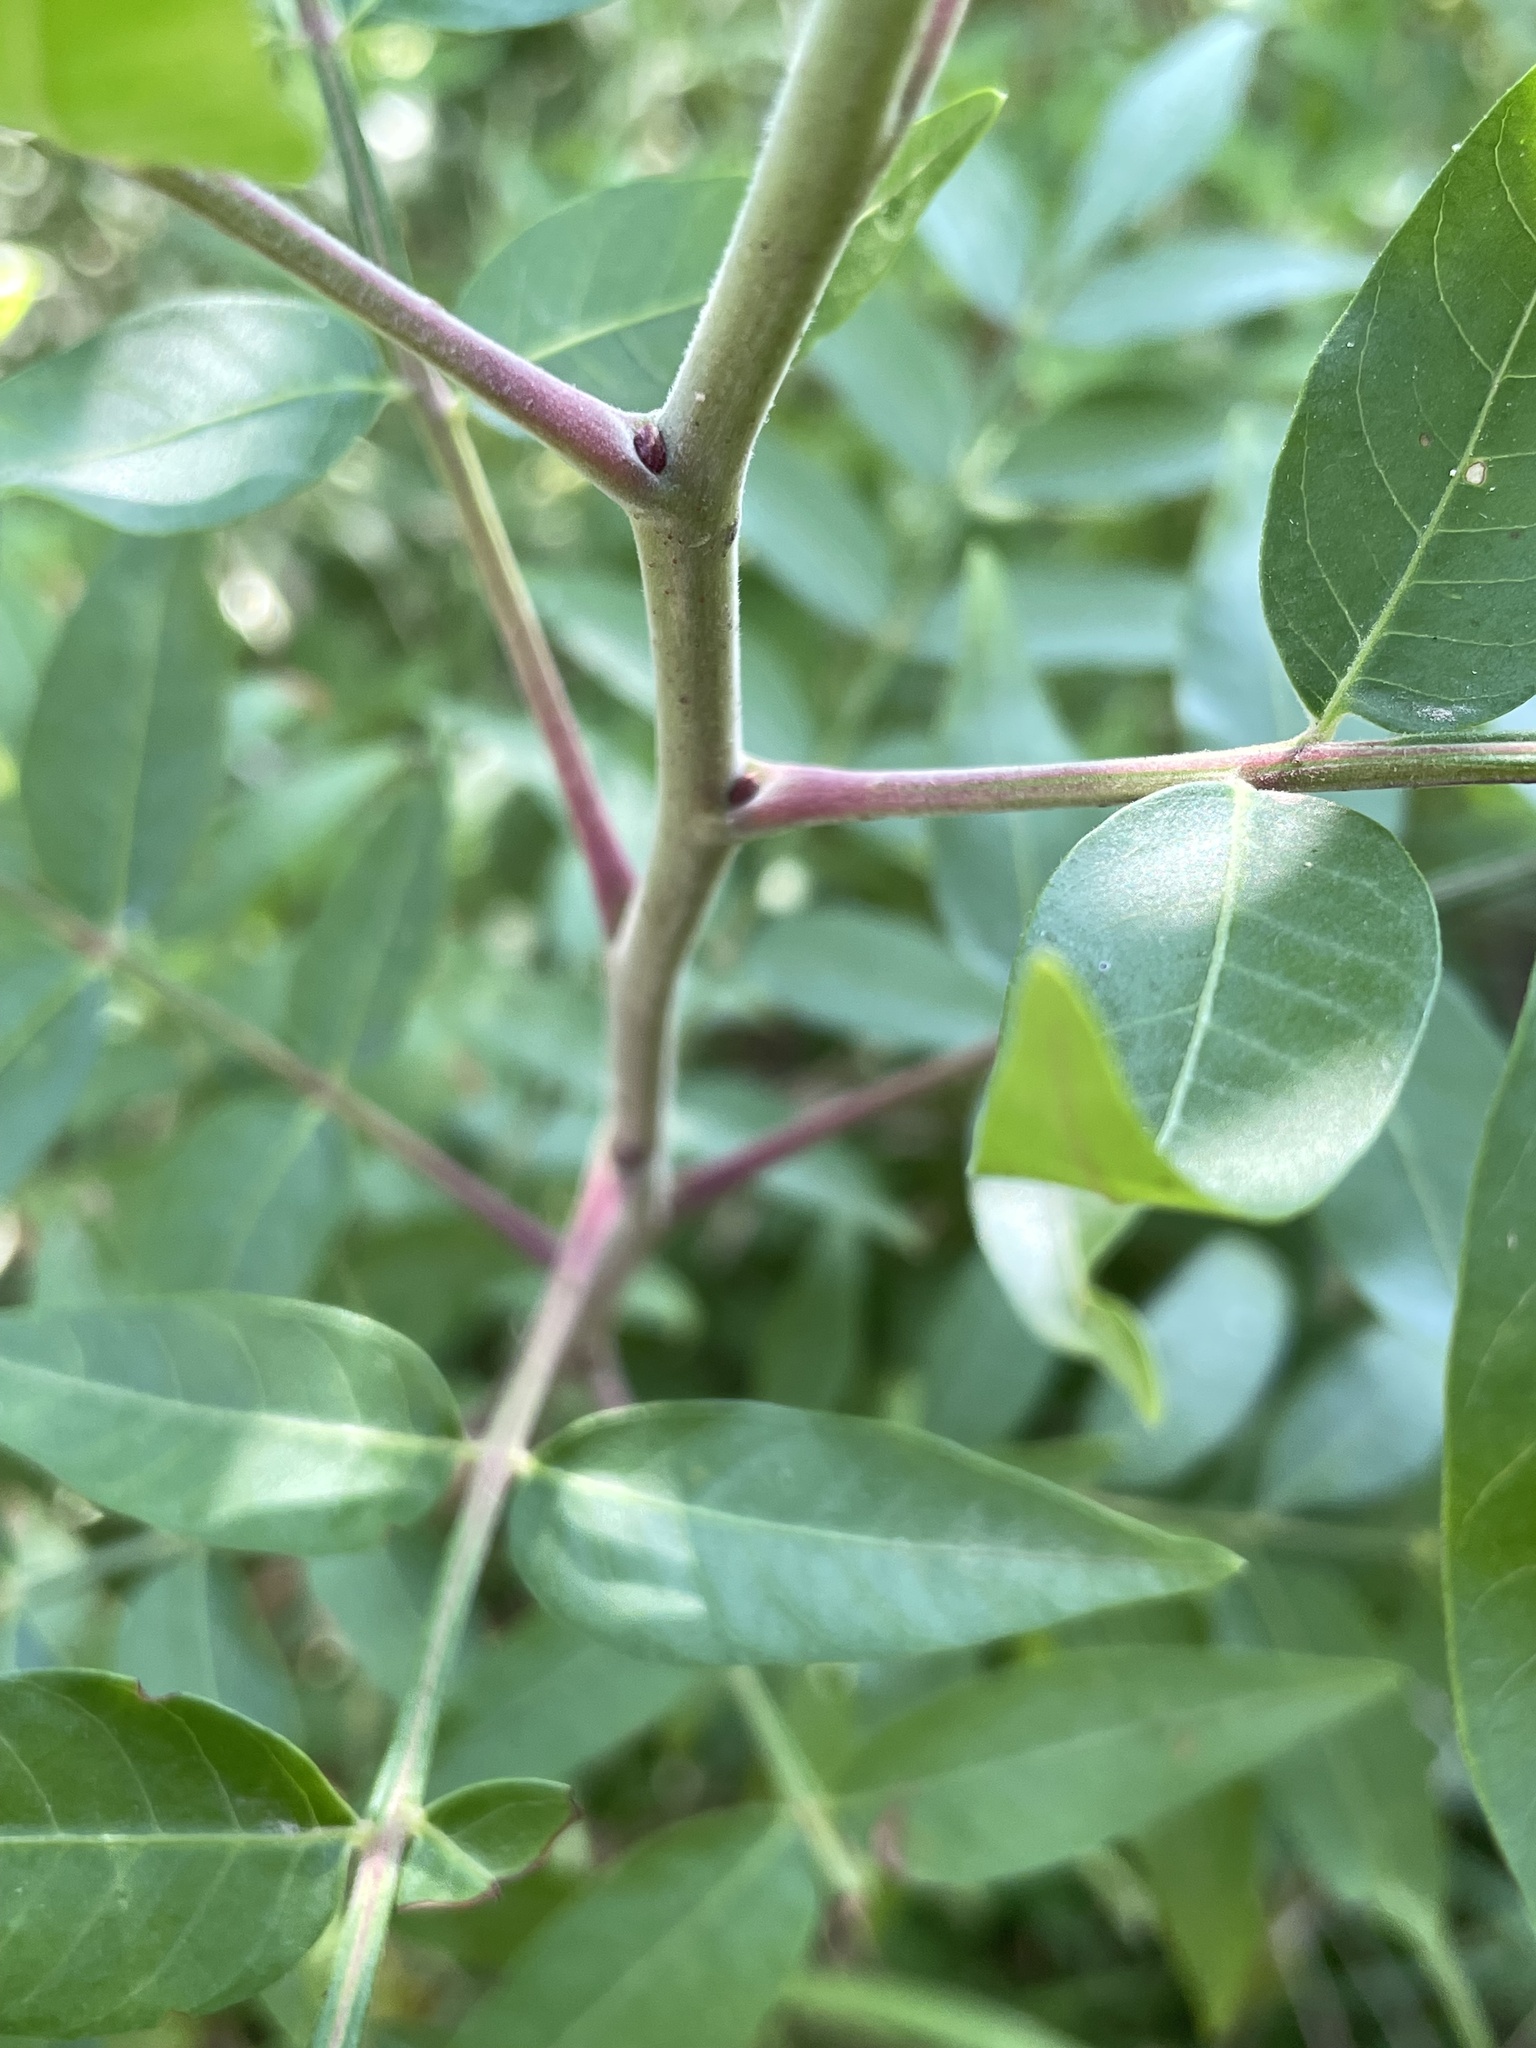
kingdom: Plantae
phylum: Tracheophyta
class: Magnoliopsida
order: Sapindales
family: Anacardiaceae
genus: Rhus
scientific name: Rhus lanceolata
